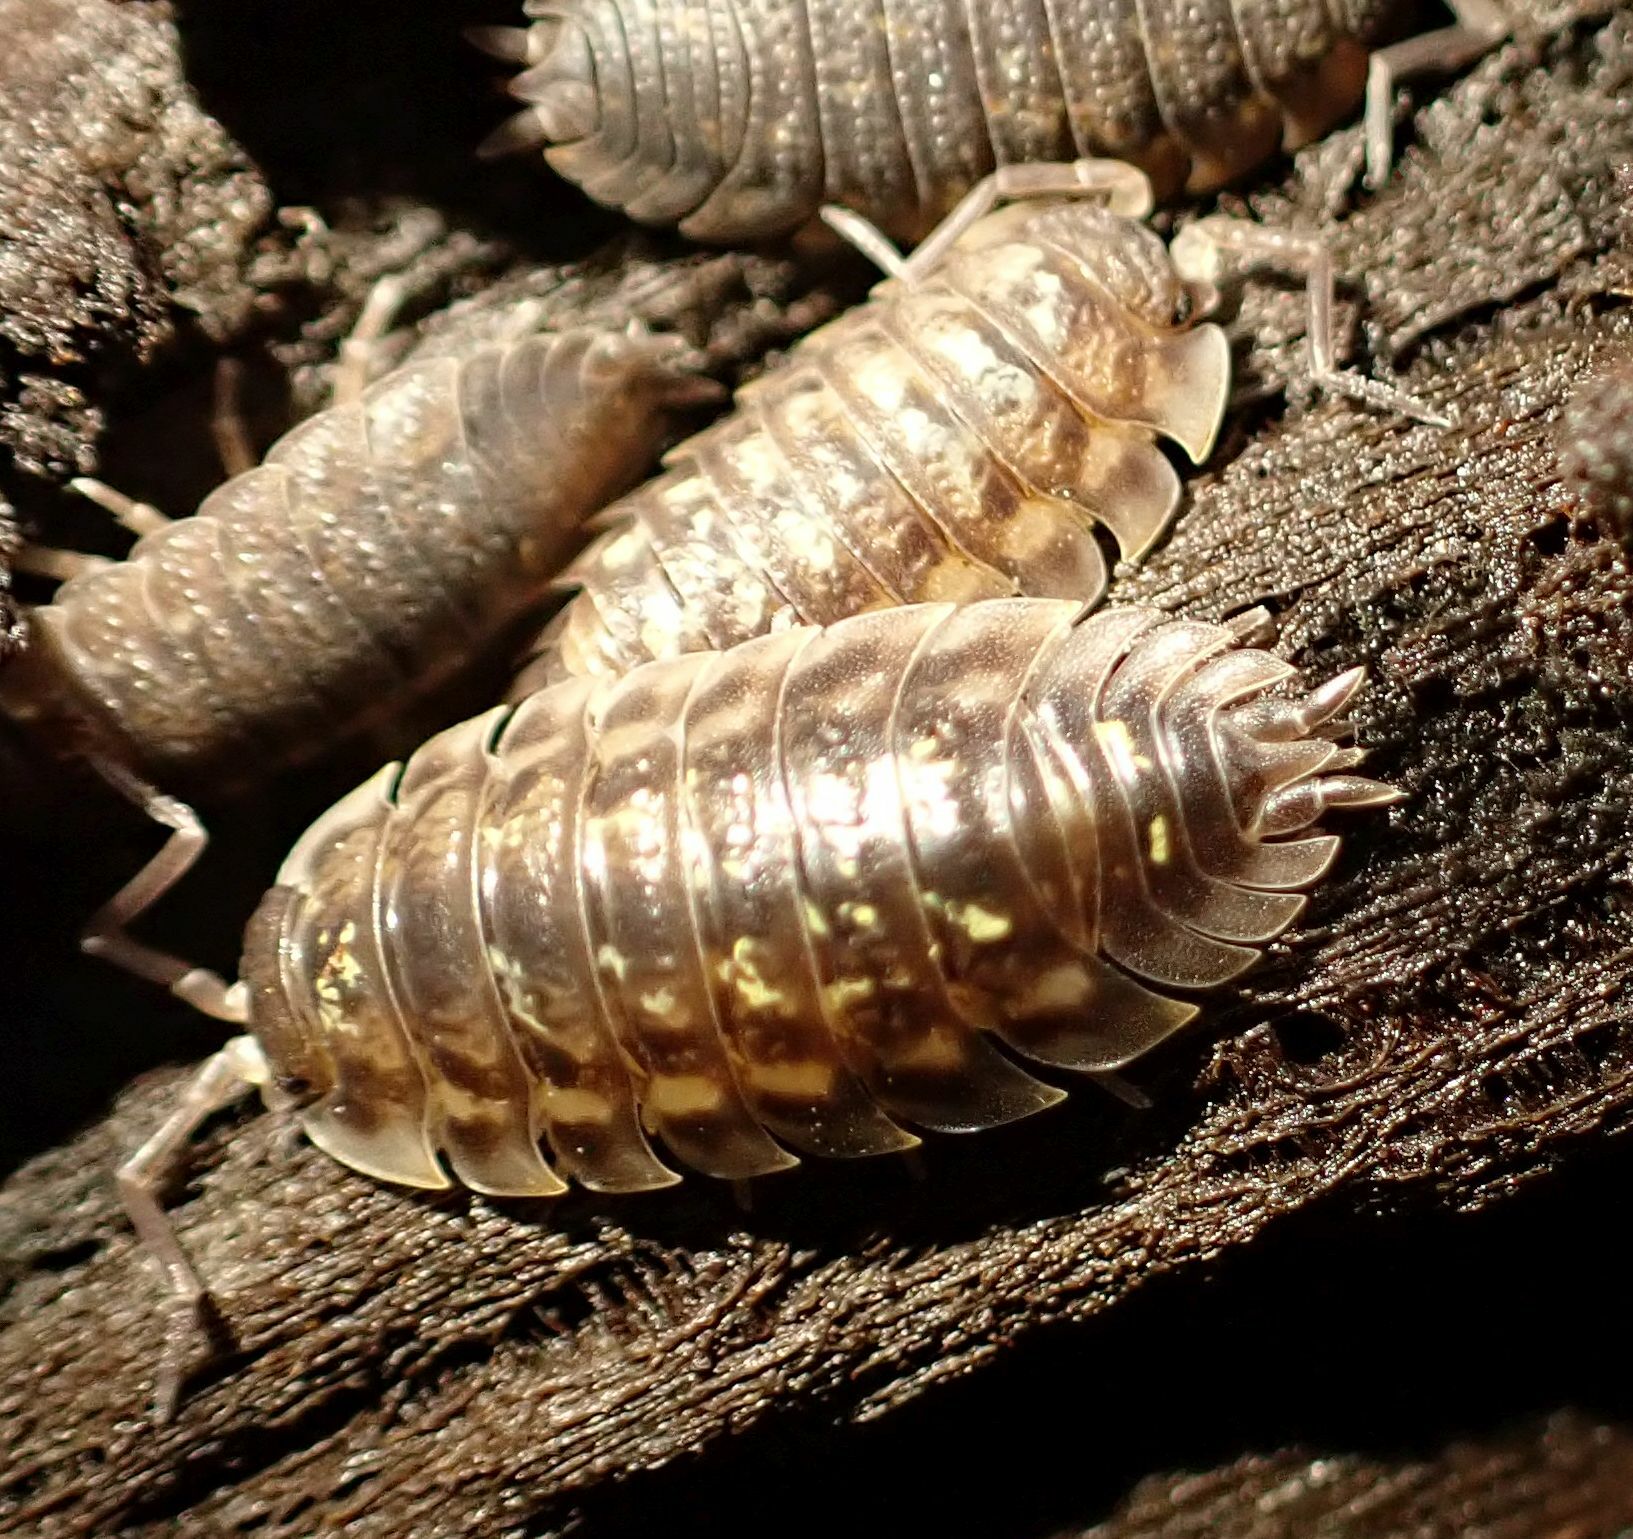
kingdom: Animalia
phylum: Arthropoda
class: Malacostraca
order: Isopoda
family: Oniscidae
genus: Oniscus
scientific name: Oniscus asellus
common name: Common shiny woodlouse
